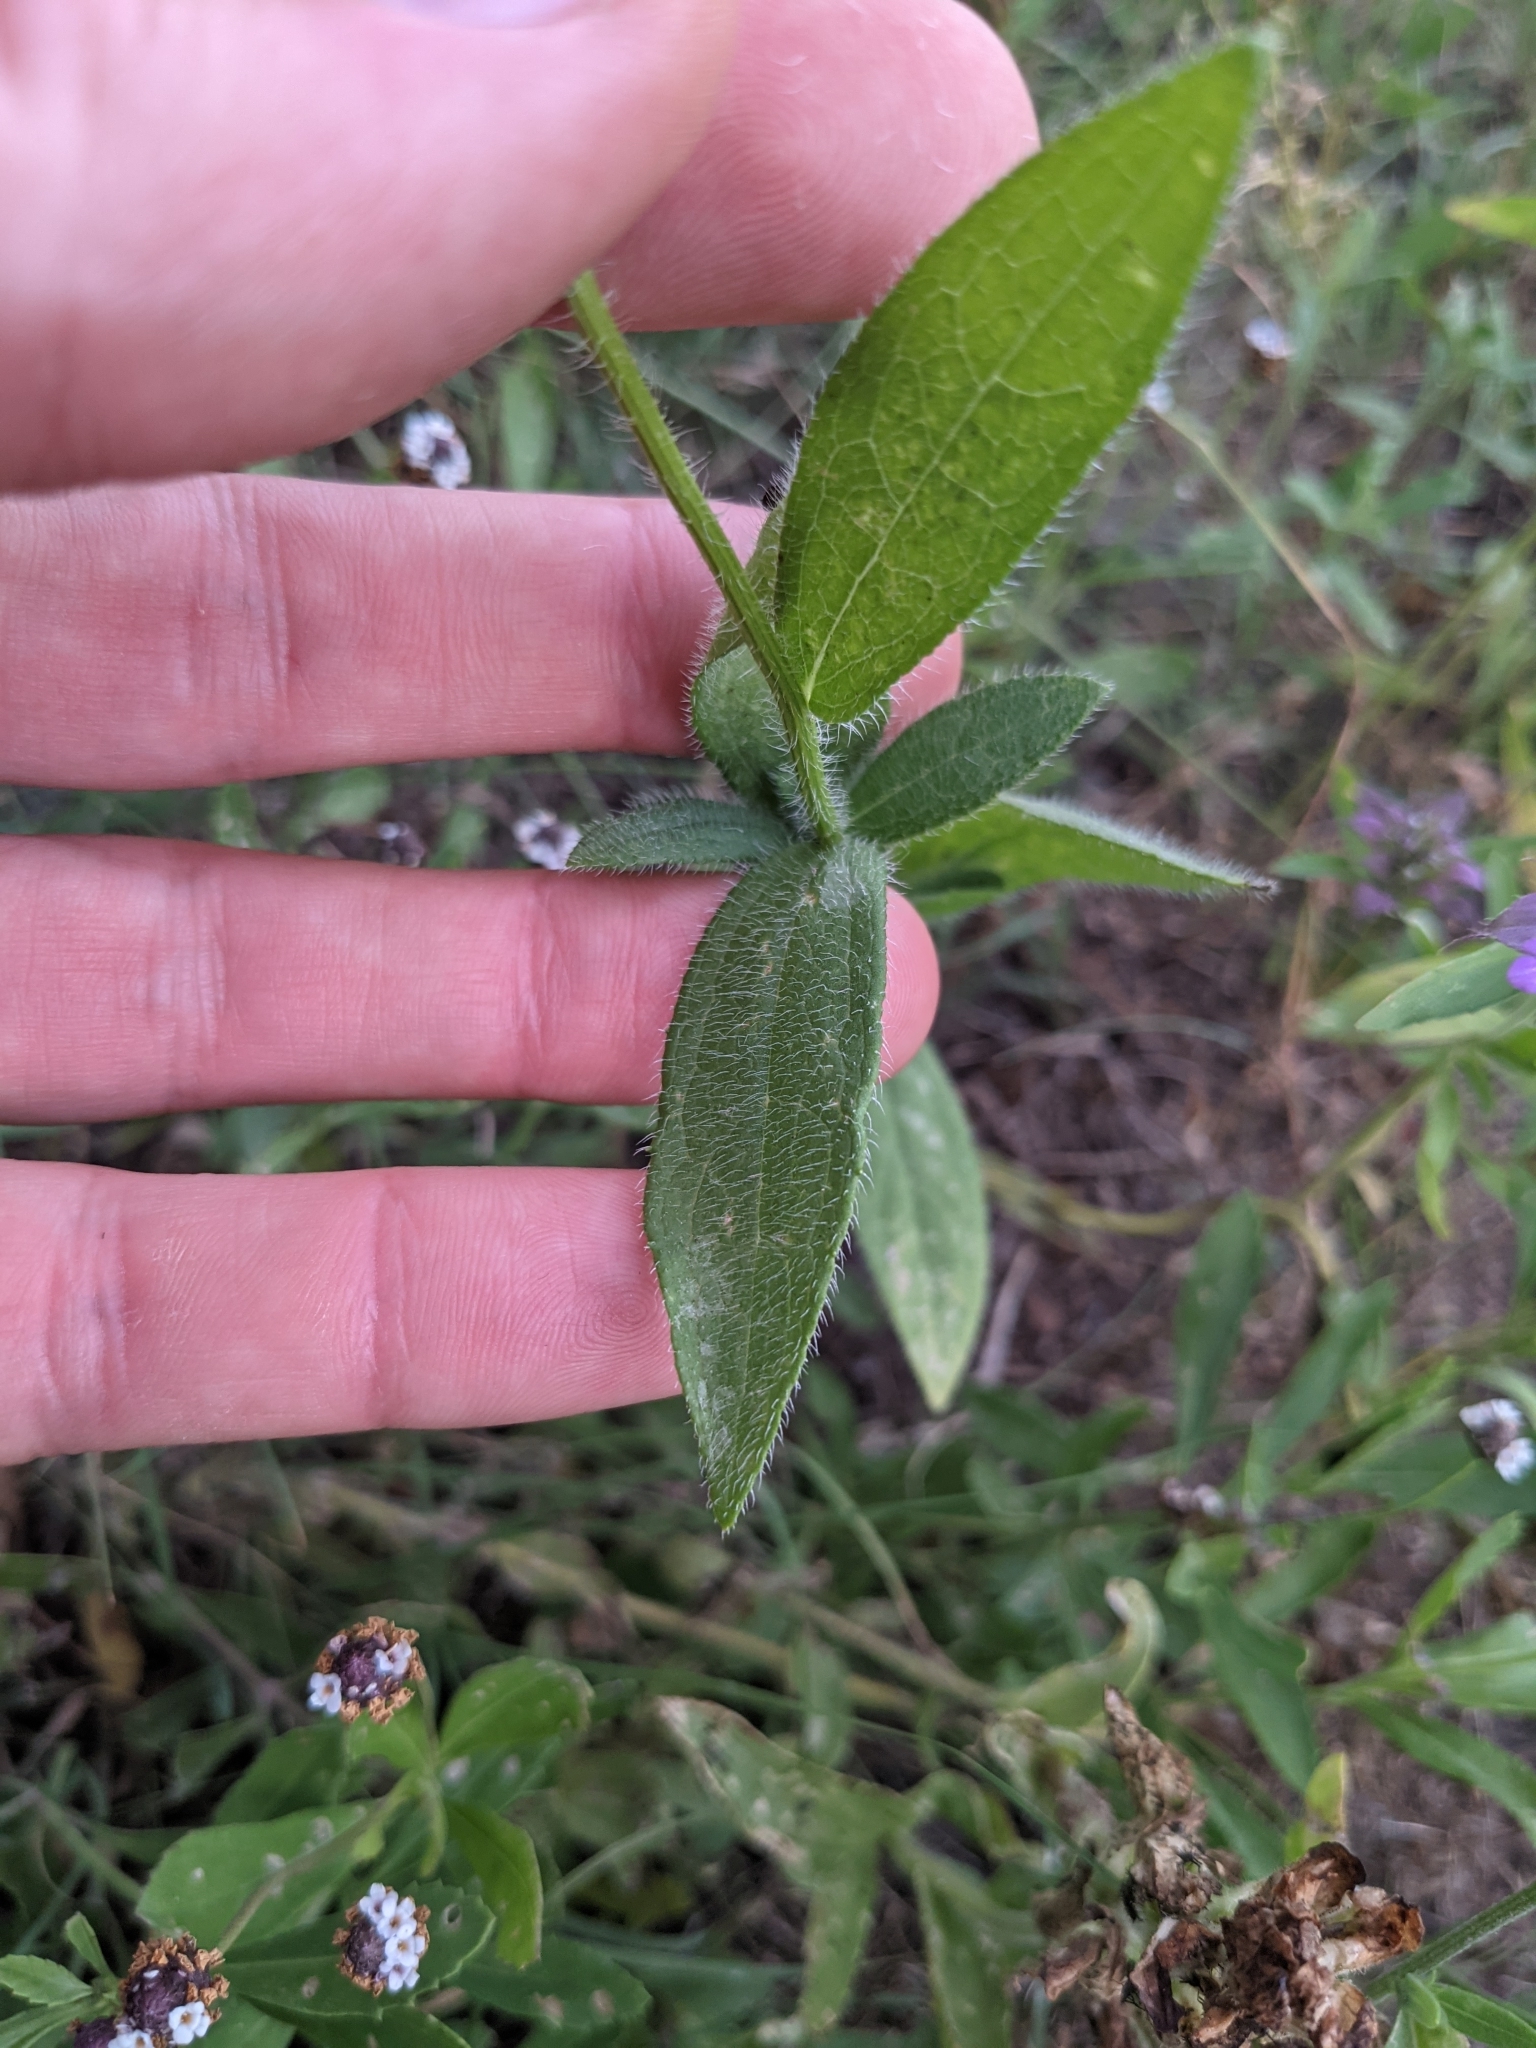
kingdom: Plantae
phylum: Tracheophyta
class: Magnoliopsida
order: Asterales
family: Asteraceae
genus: Rudbeckia
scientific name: Rudbeckia hirta
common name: Black-eyed-susan
